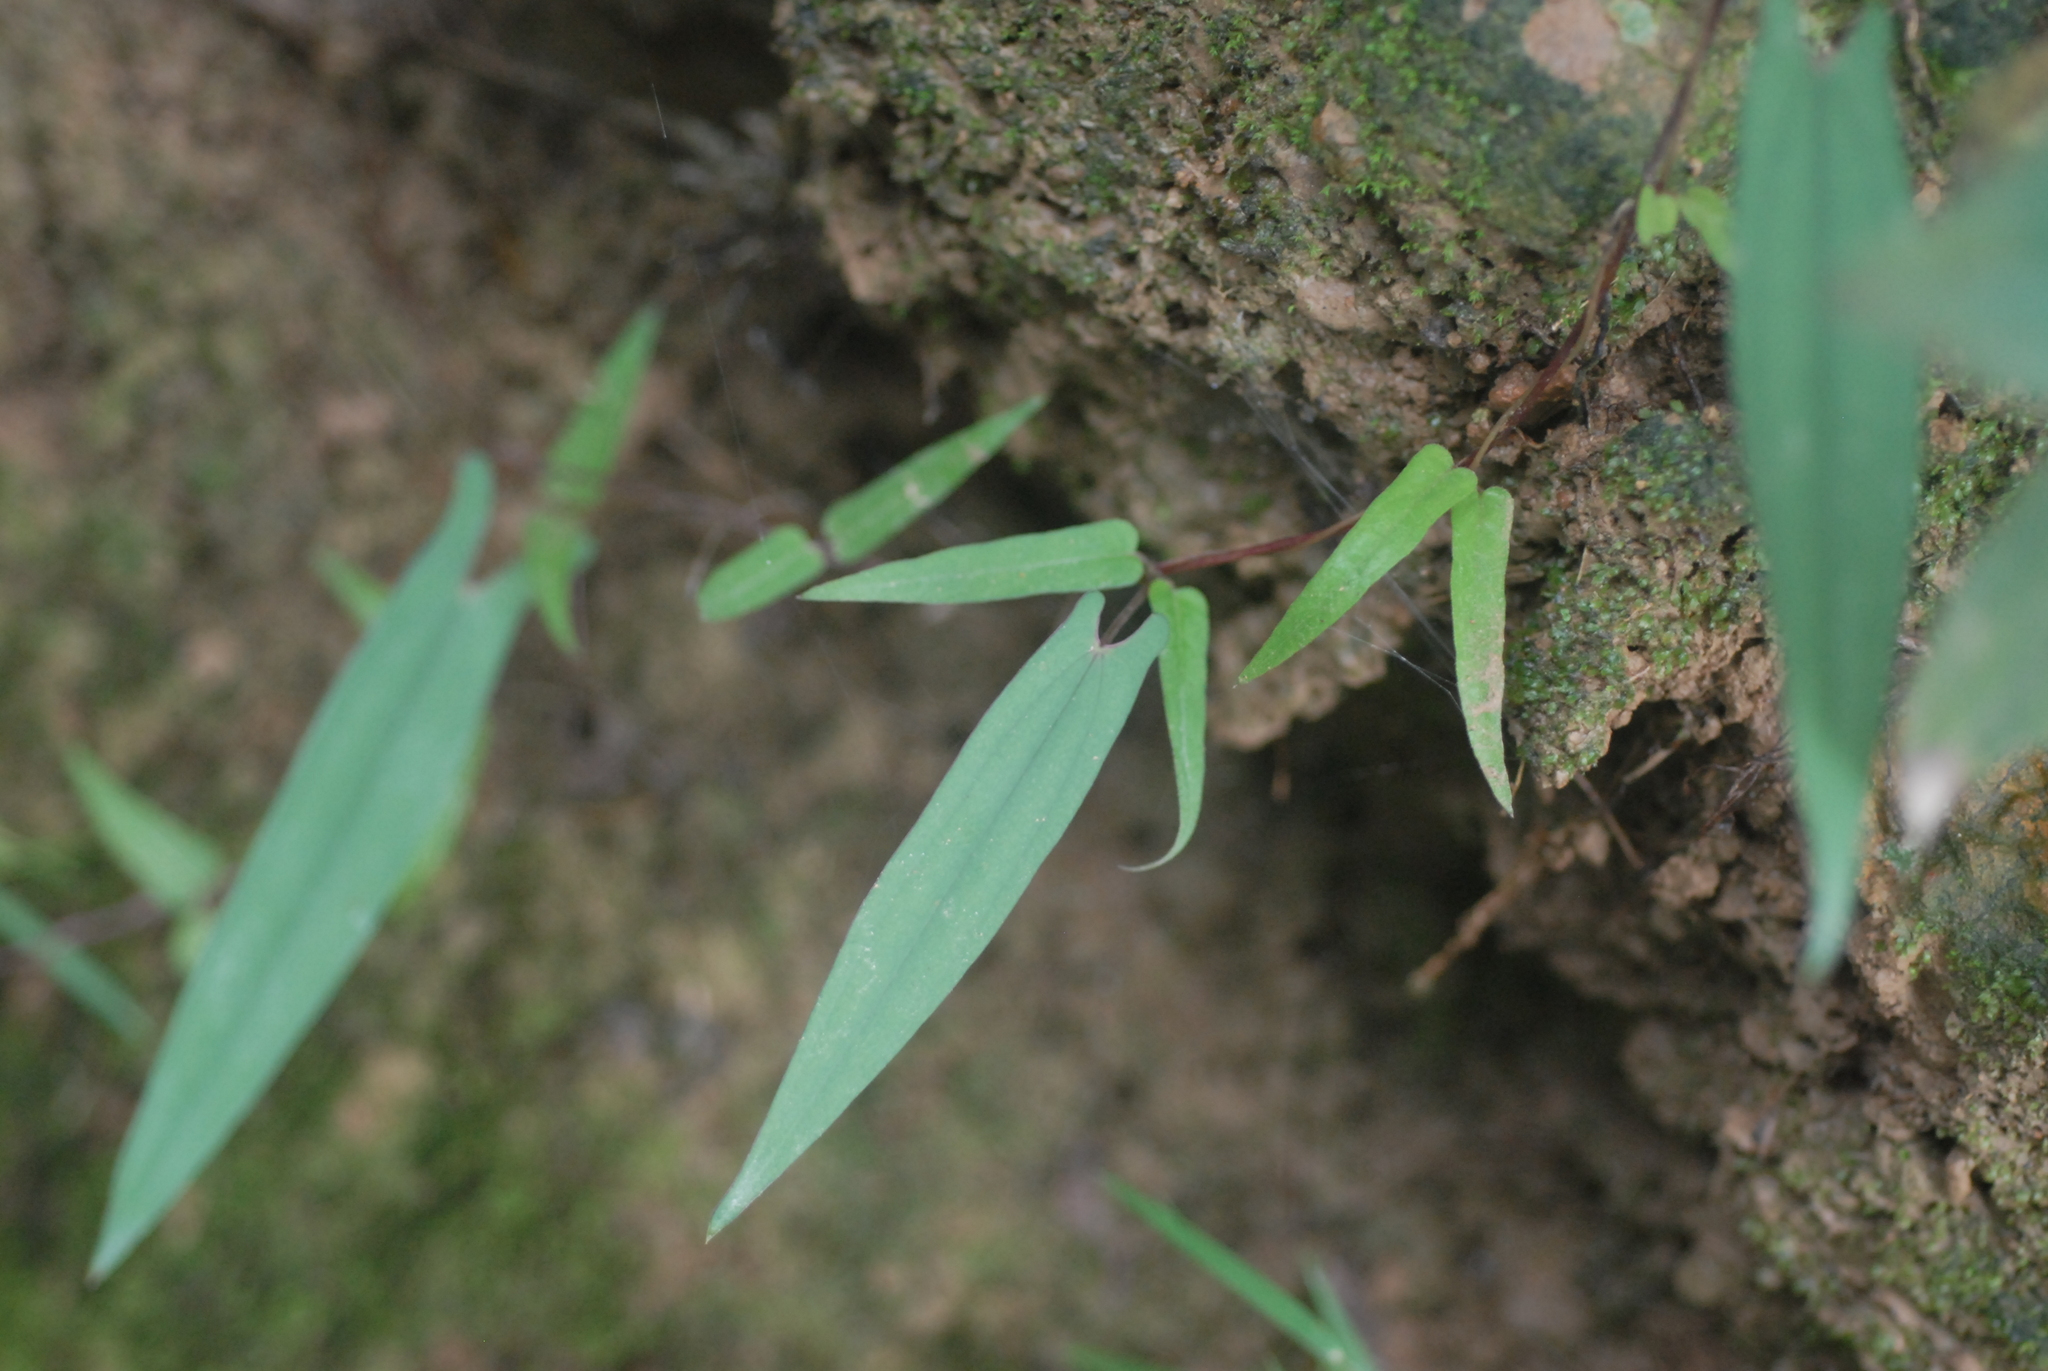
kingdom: Plantae
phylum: Tracheophyta
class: Liliopsida
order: Dioscoreales
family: Dioscoreaceae
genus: Dioscorea
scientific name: Dioscorea japonica
